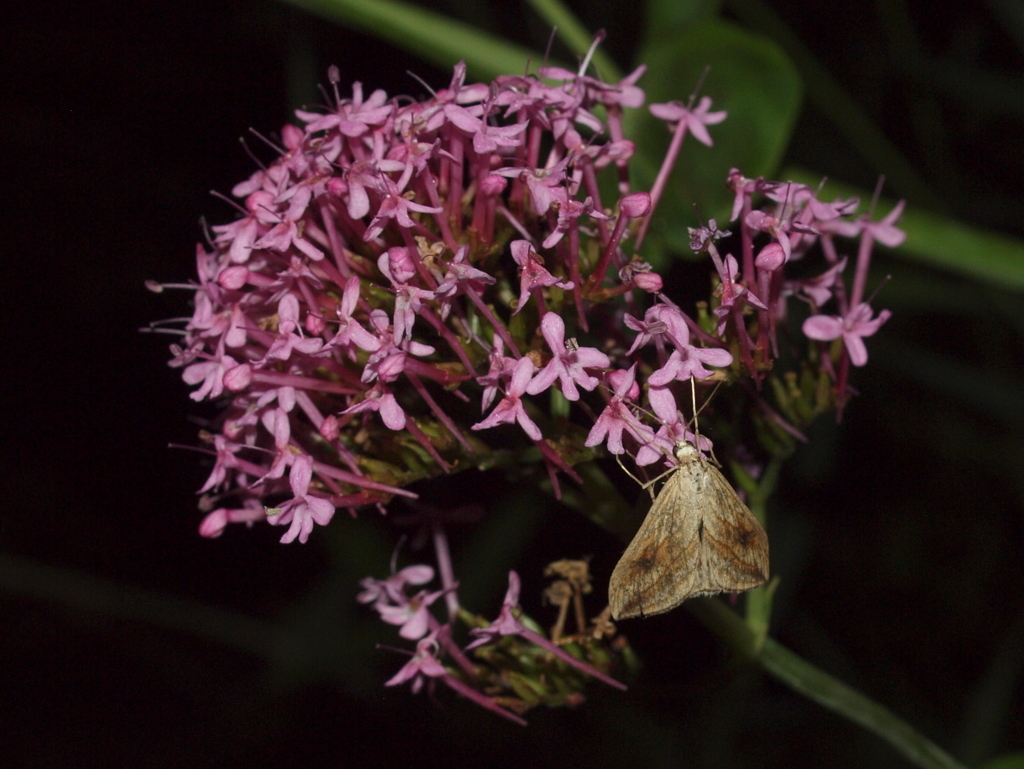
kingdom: Animalia
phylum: Arthropoda
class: Insecta
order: Lepidoptera
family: Crambidae
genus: Evergestis
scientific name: Evergestis forficalis
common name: Garden pebble
